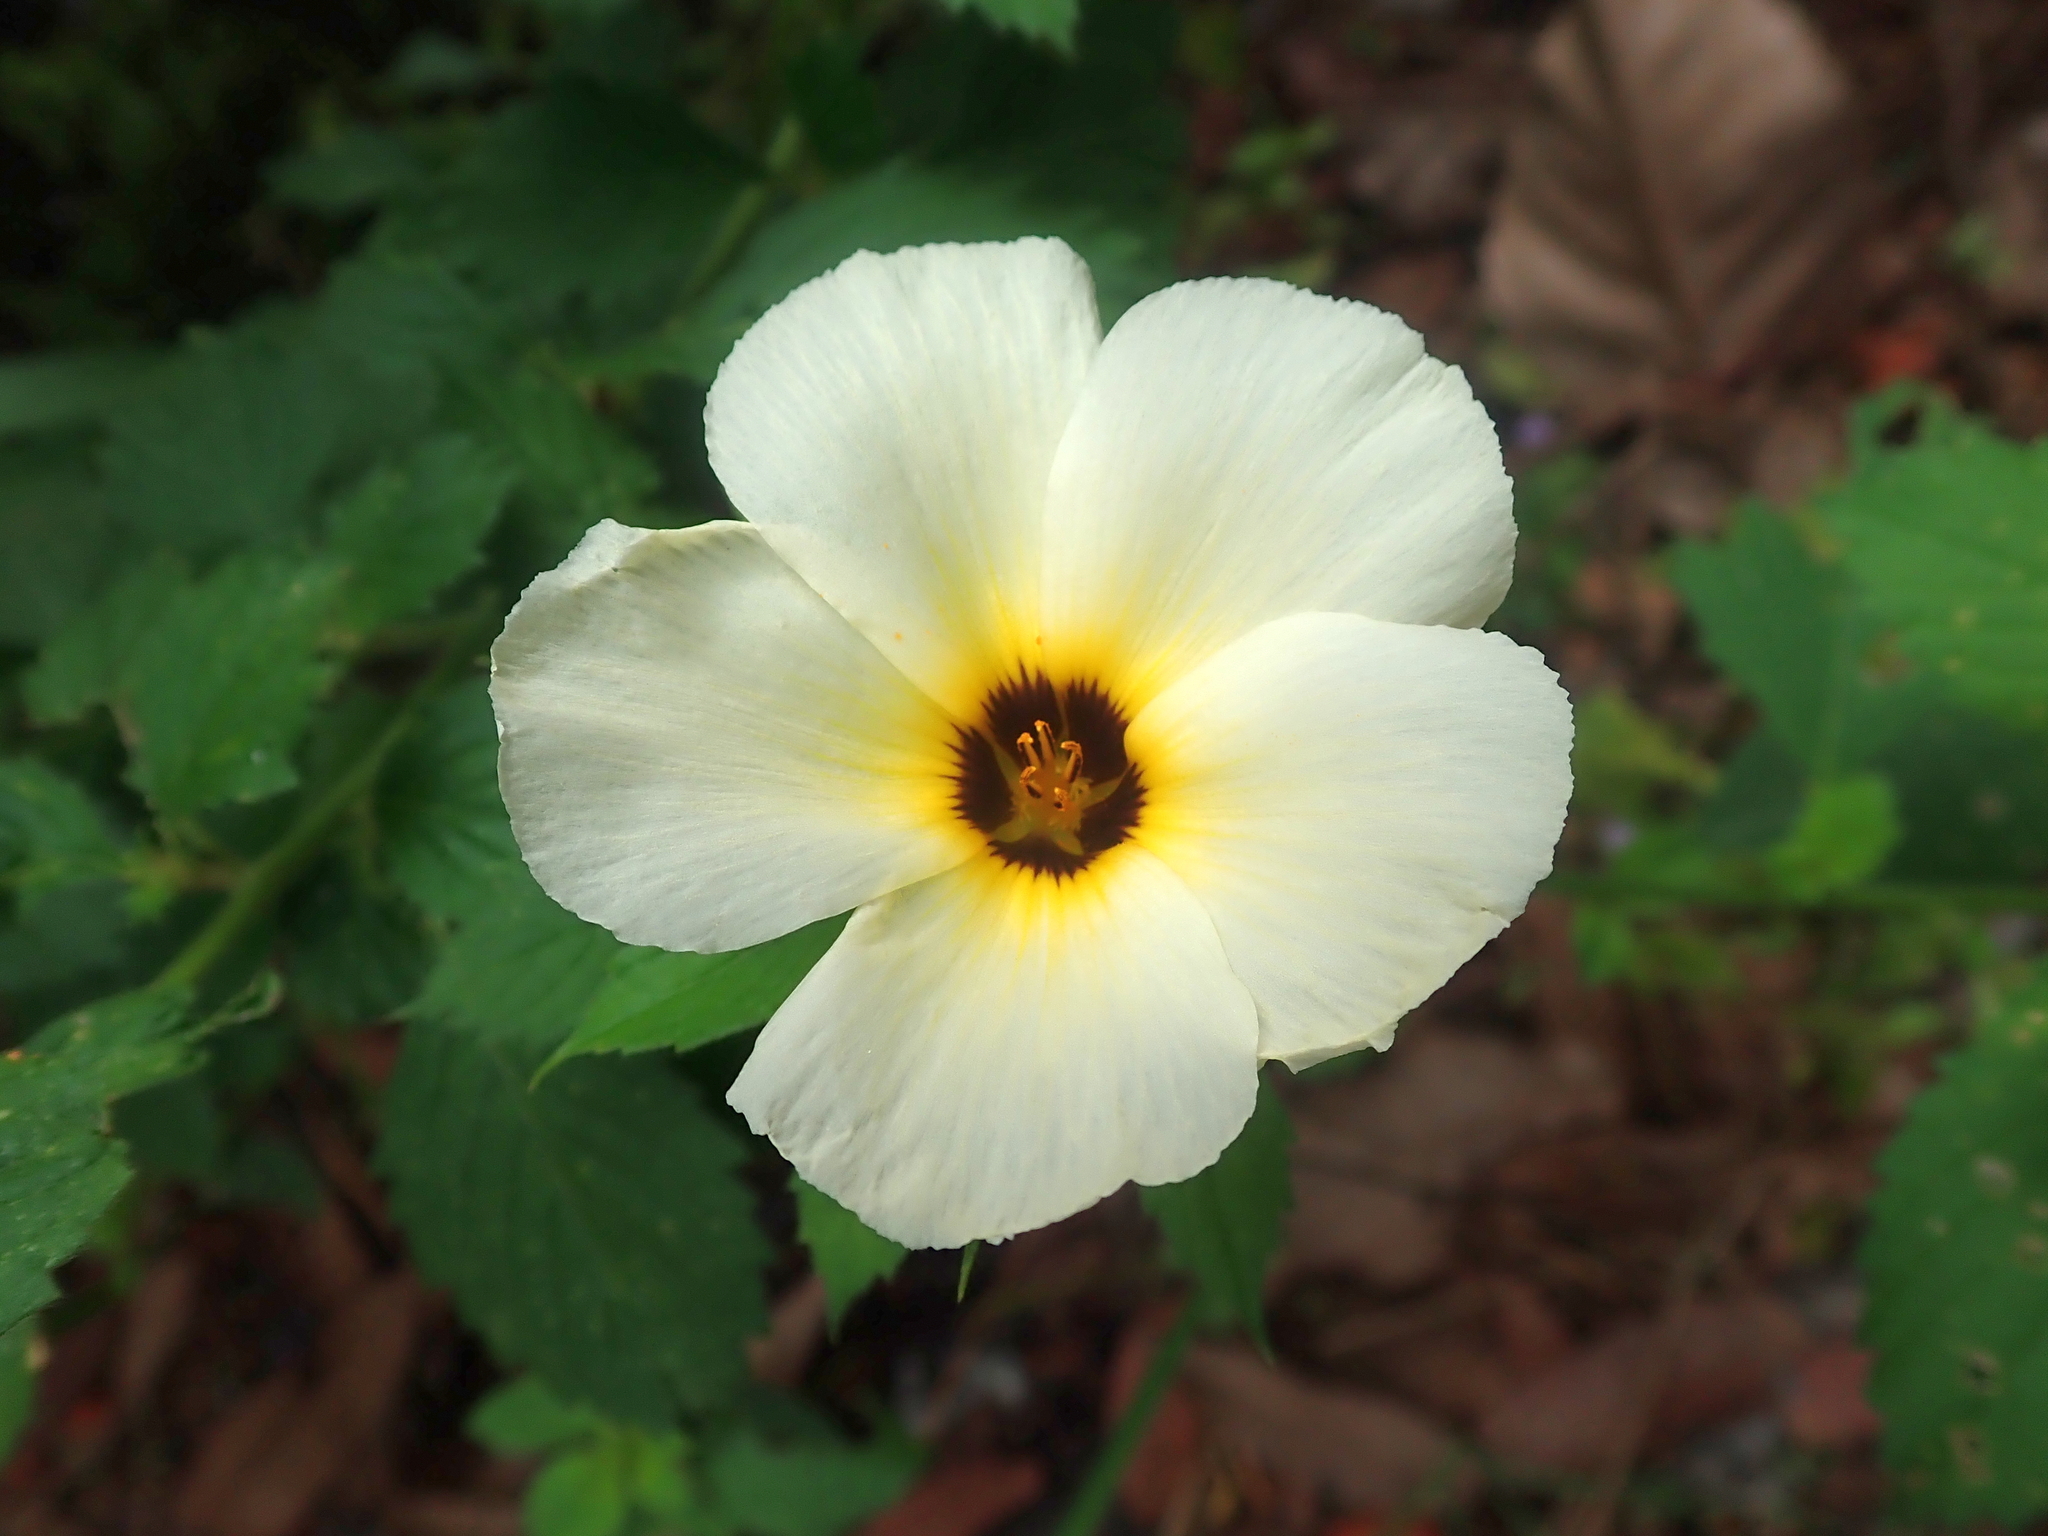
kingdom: Plantae
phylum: Tracheophyta
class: Magnoliopsida
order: Malpighiales
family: Turneraceae
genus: Turnera
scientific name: Turnera subulata
